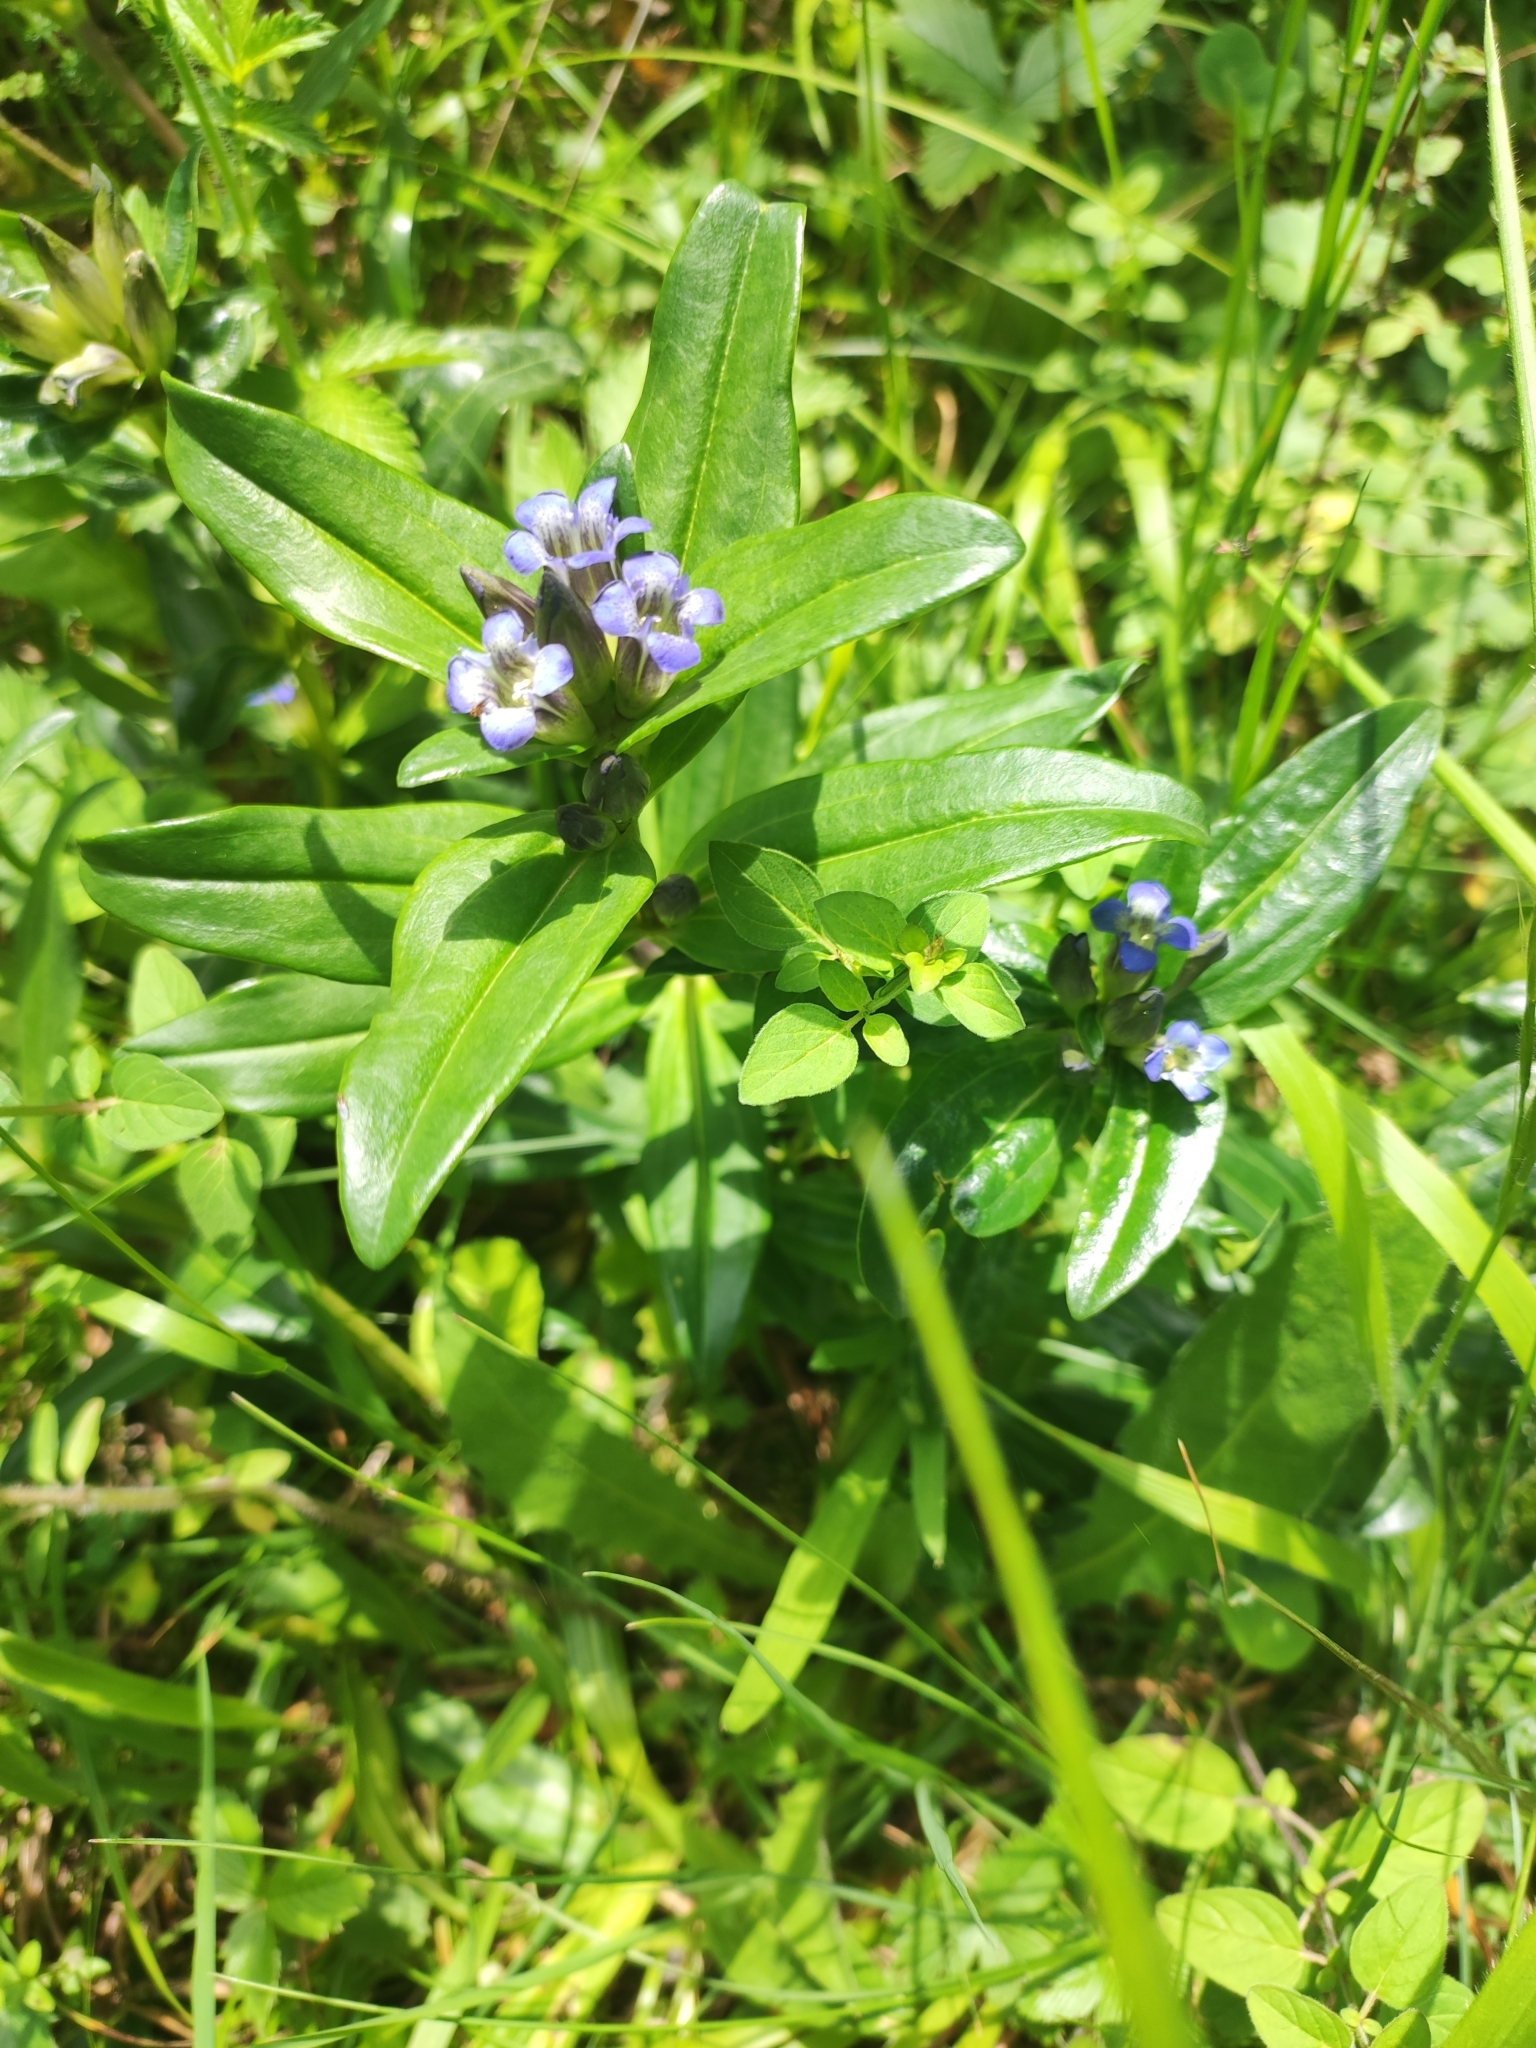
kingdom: Plantae
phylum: Tracheophyta
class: Magnoliopsida
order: Gentianales
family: Gentianaceae
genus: Gentiana
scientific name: Gentiana cruciata
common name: Cross gentian
